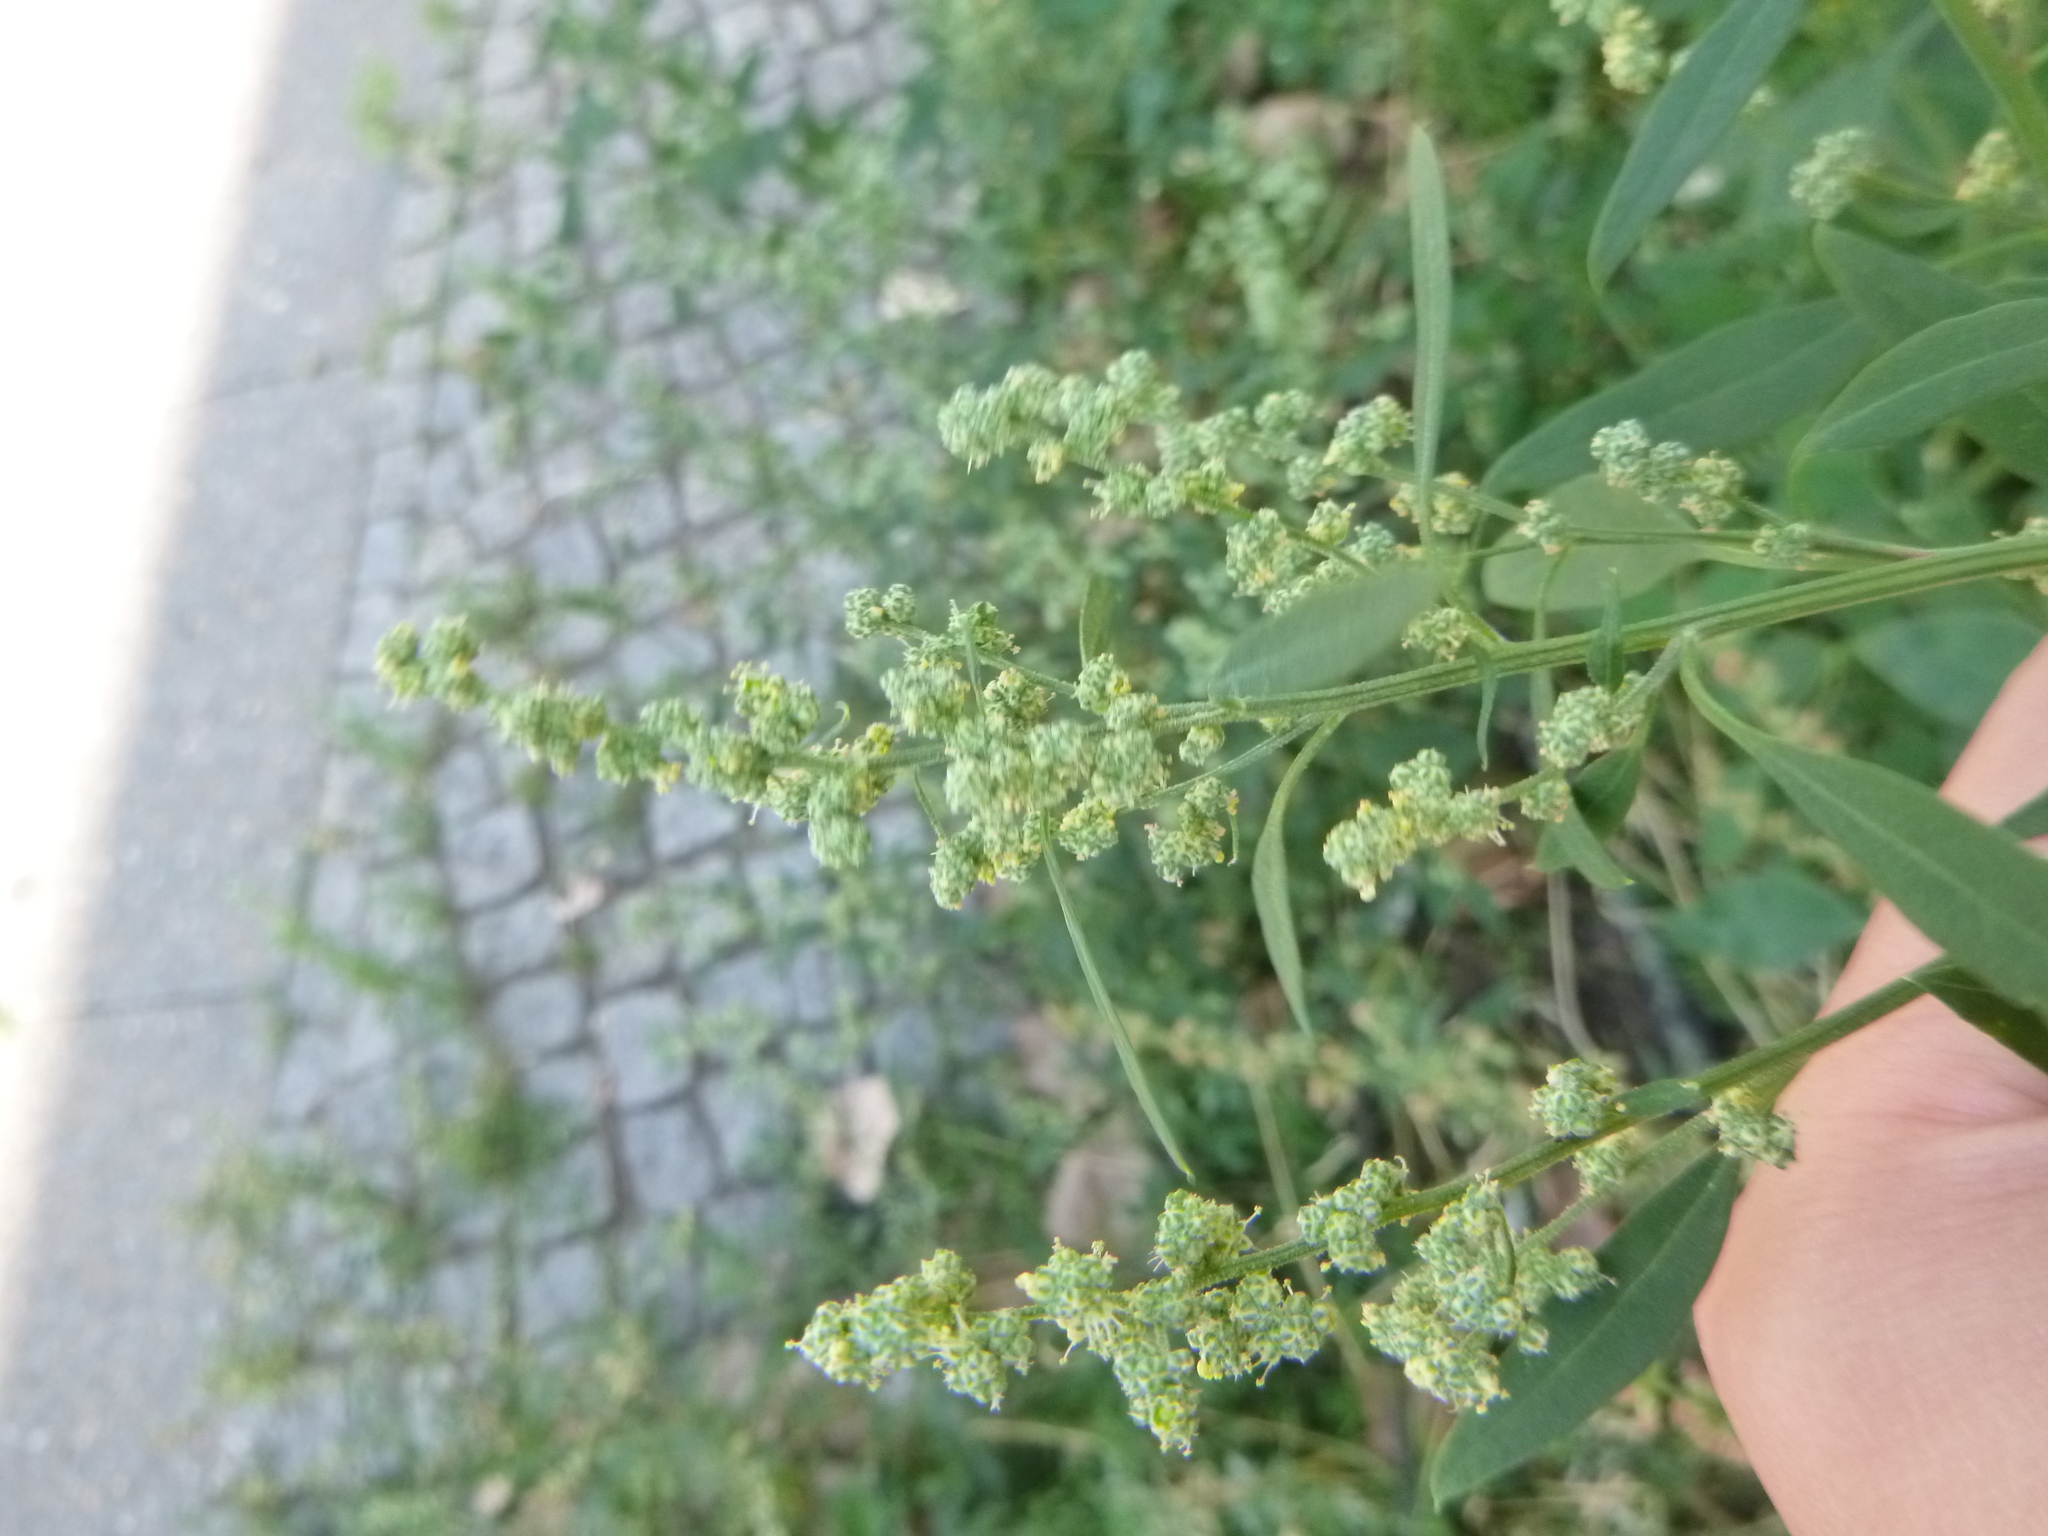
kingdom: Plantae
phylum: Tracheophyta
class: Magnoliopsida
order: Caryophyllales
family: Amaranthaceae
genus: Chenopodium
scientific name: Chenopodium album
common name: Fat-hen
